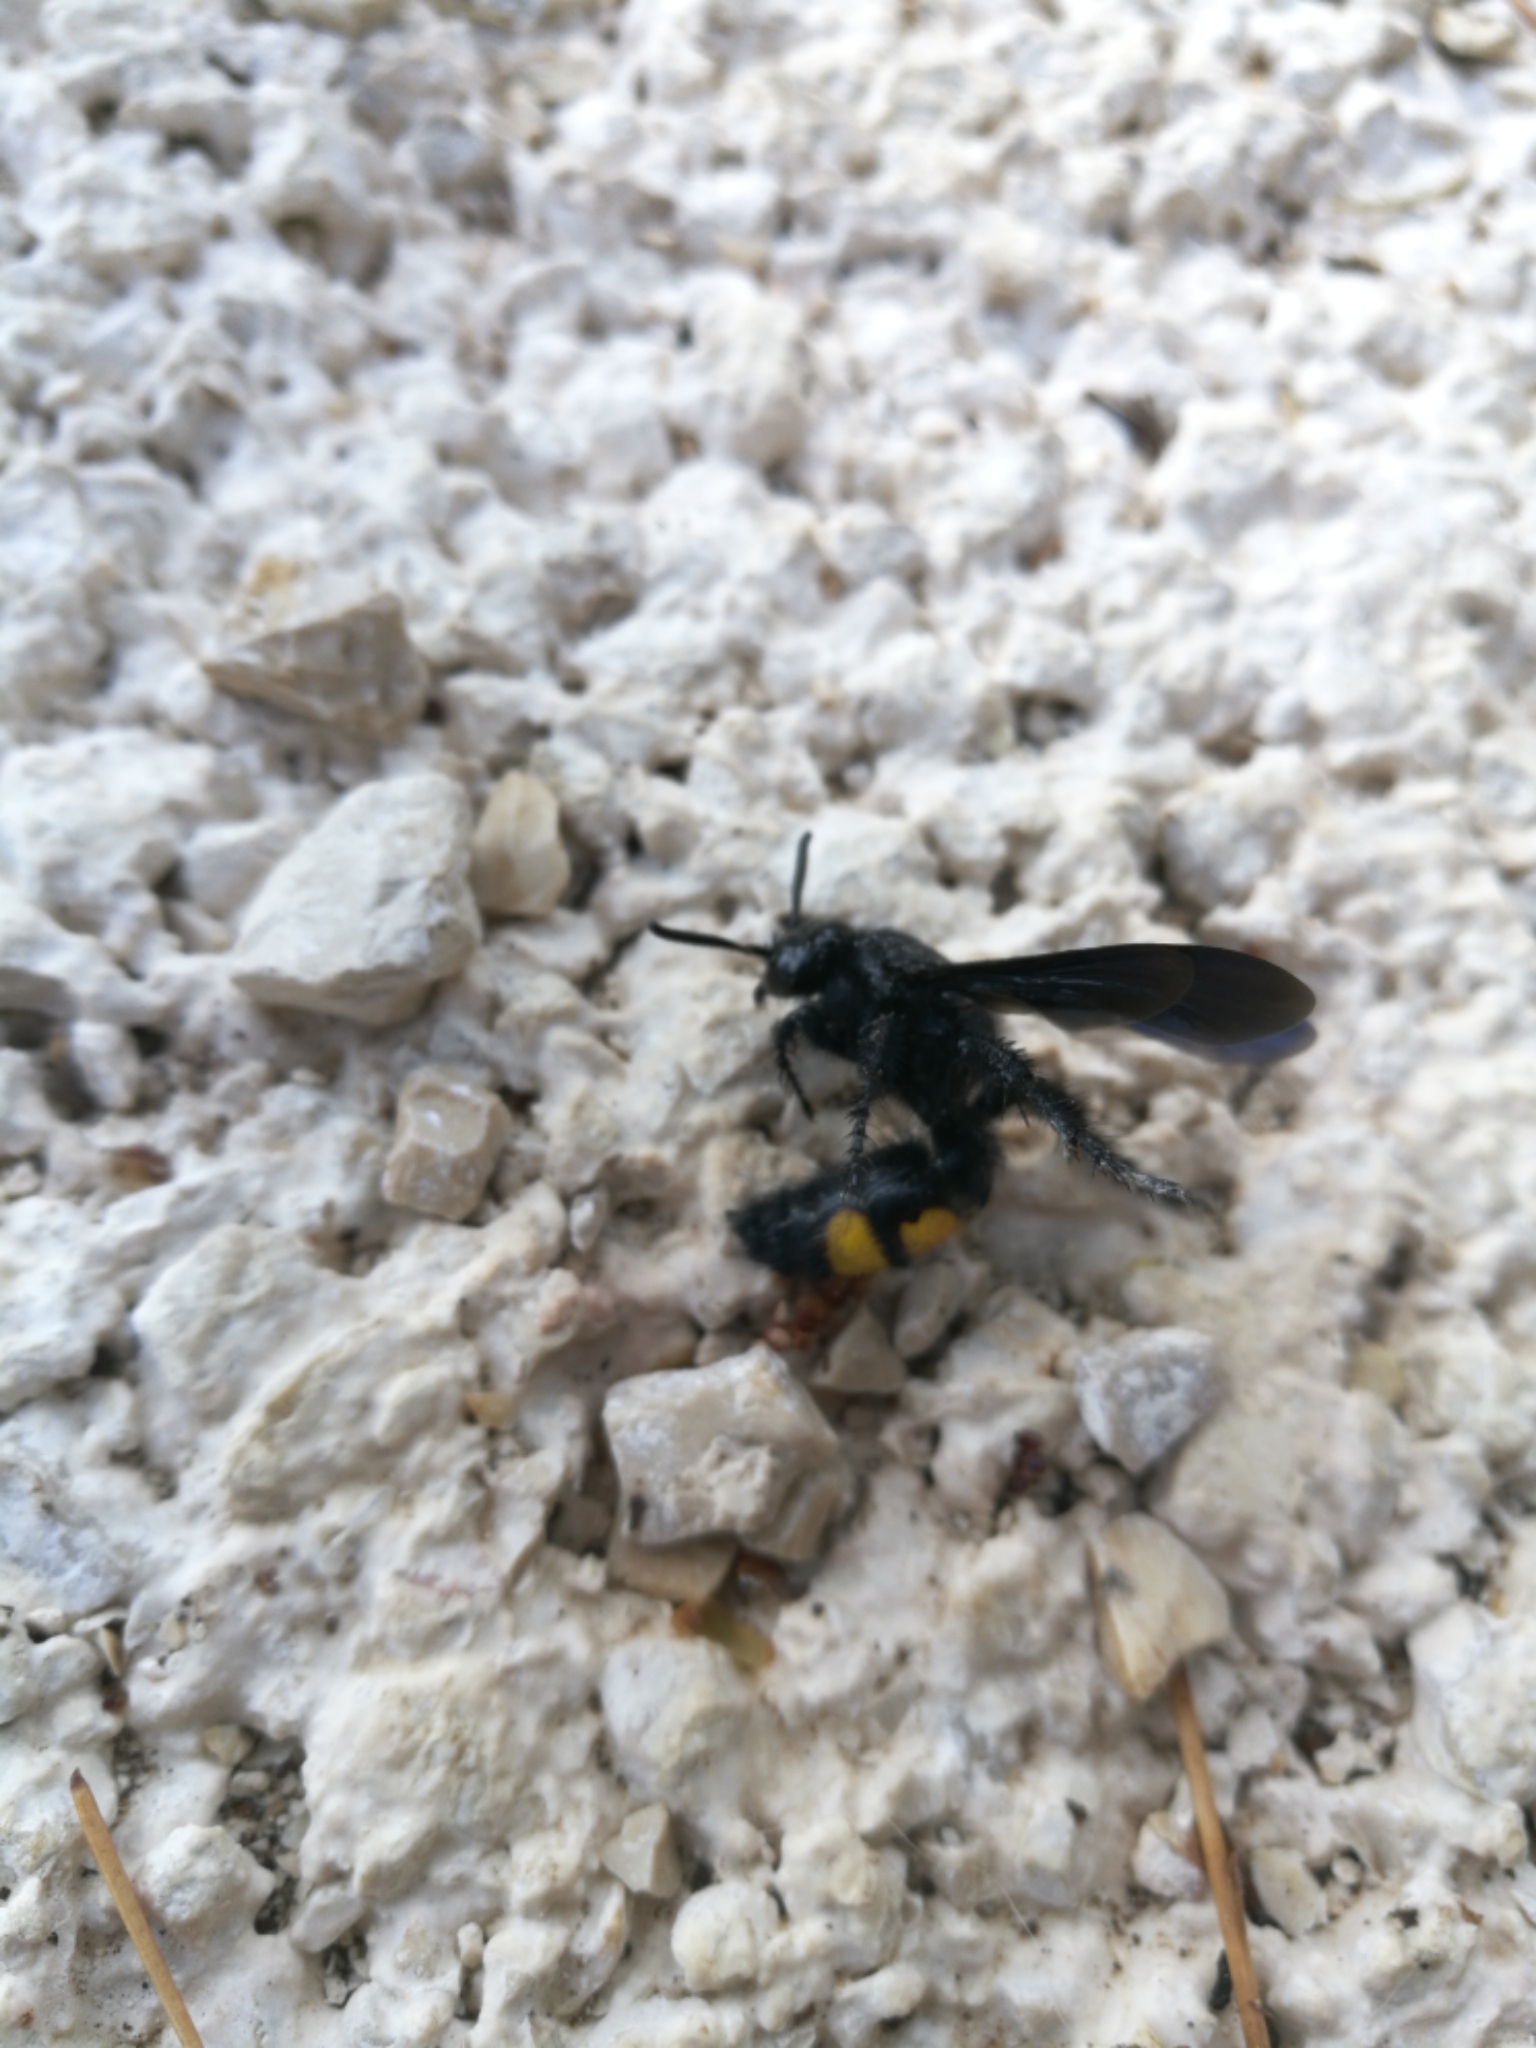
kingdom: Animalia
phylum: Arthropoda
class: Insecta
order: Hymenoptera
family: Scoliidae
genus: Scolia
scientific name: Scolia hirta
